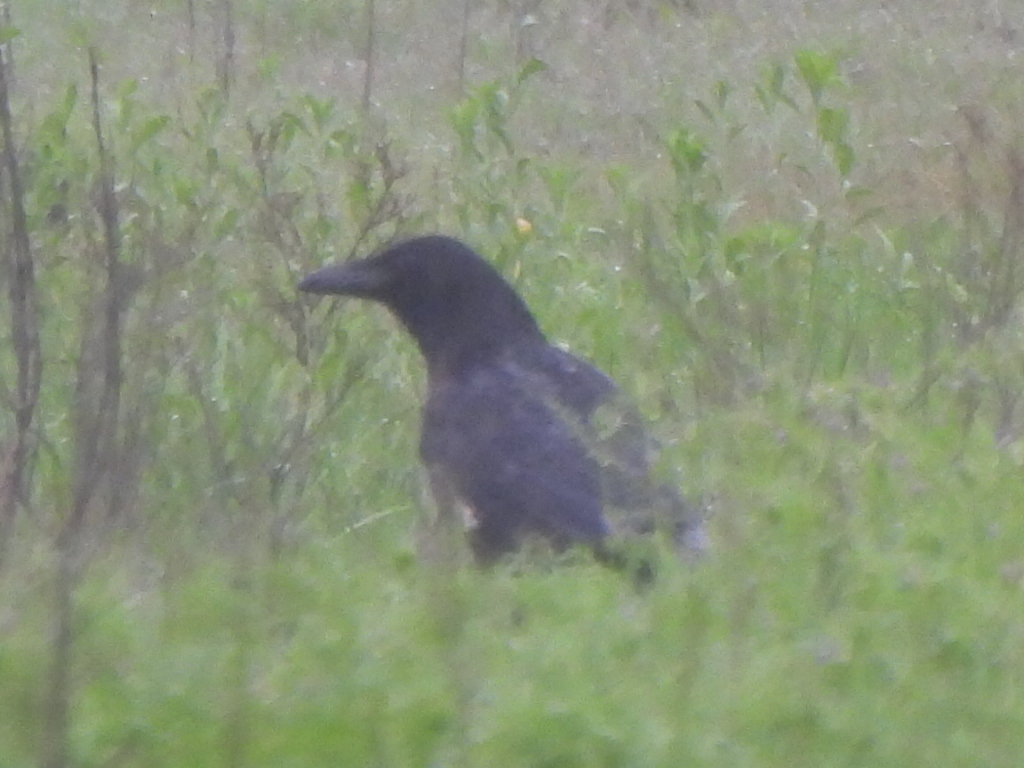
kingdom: Animalia
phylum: Chordata
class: Aves
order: Passeriformes
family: Corvidae
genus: Corvus
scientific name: Corvus brachyrhynchos
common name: American crow
